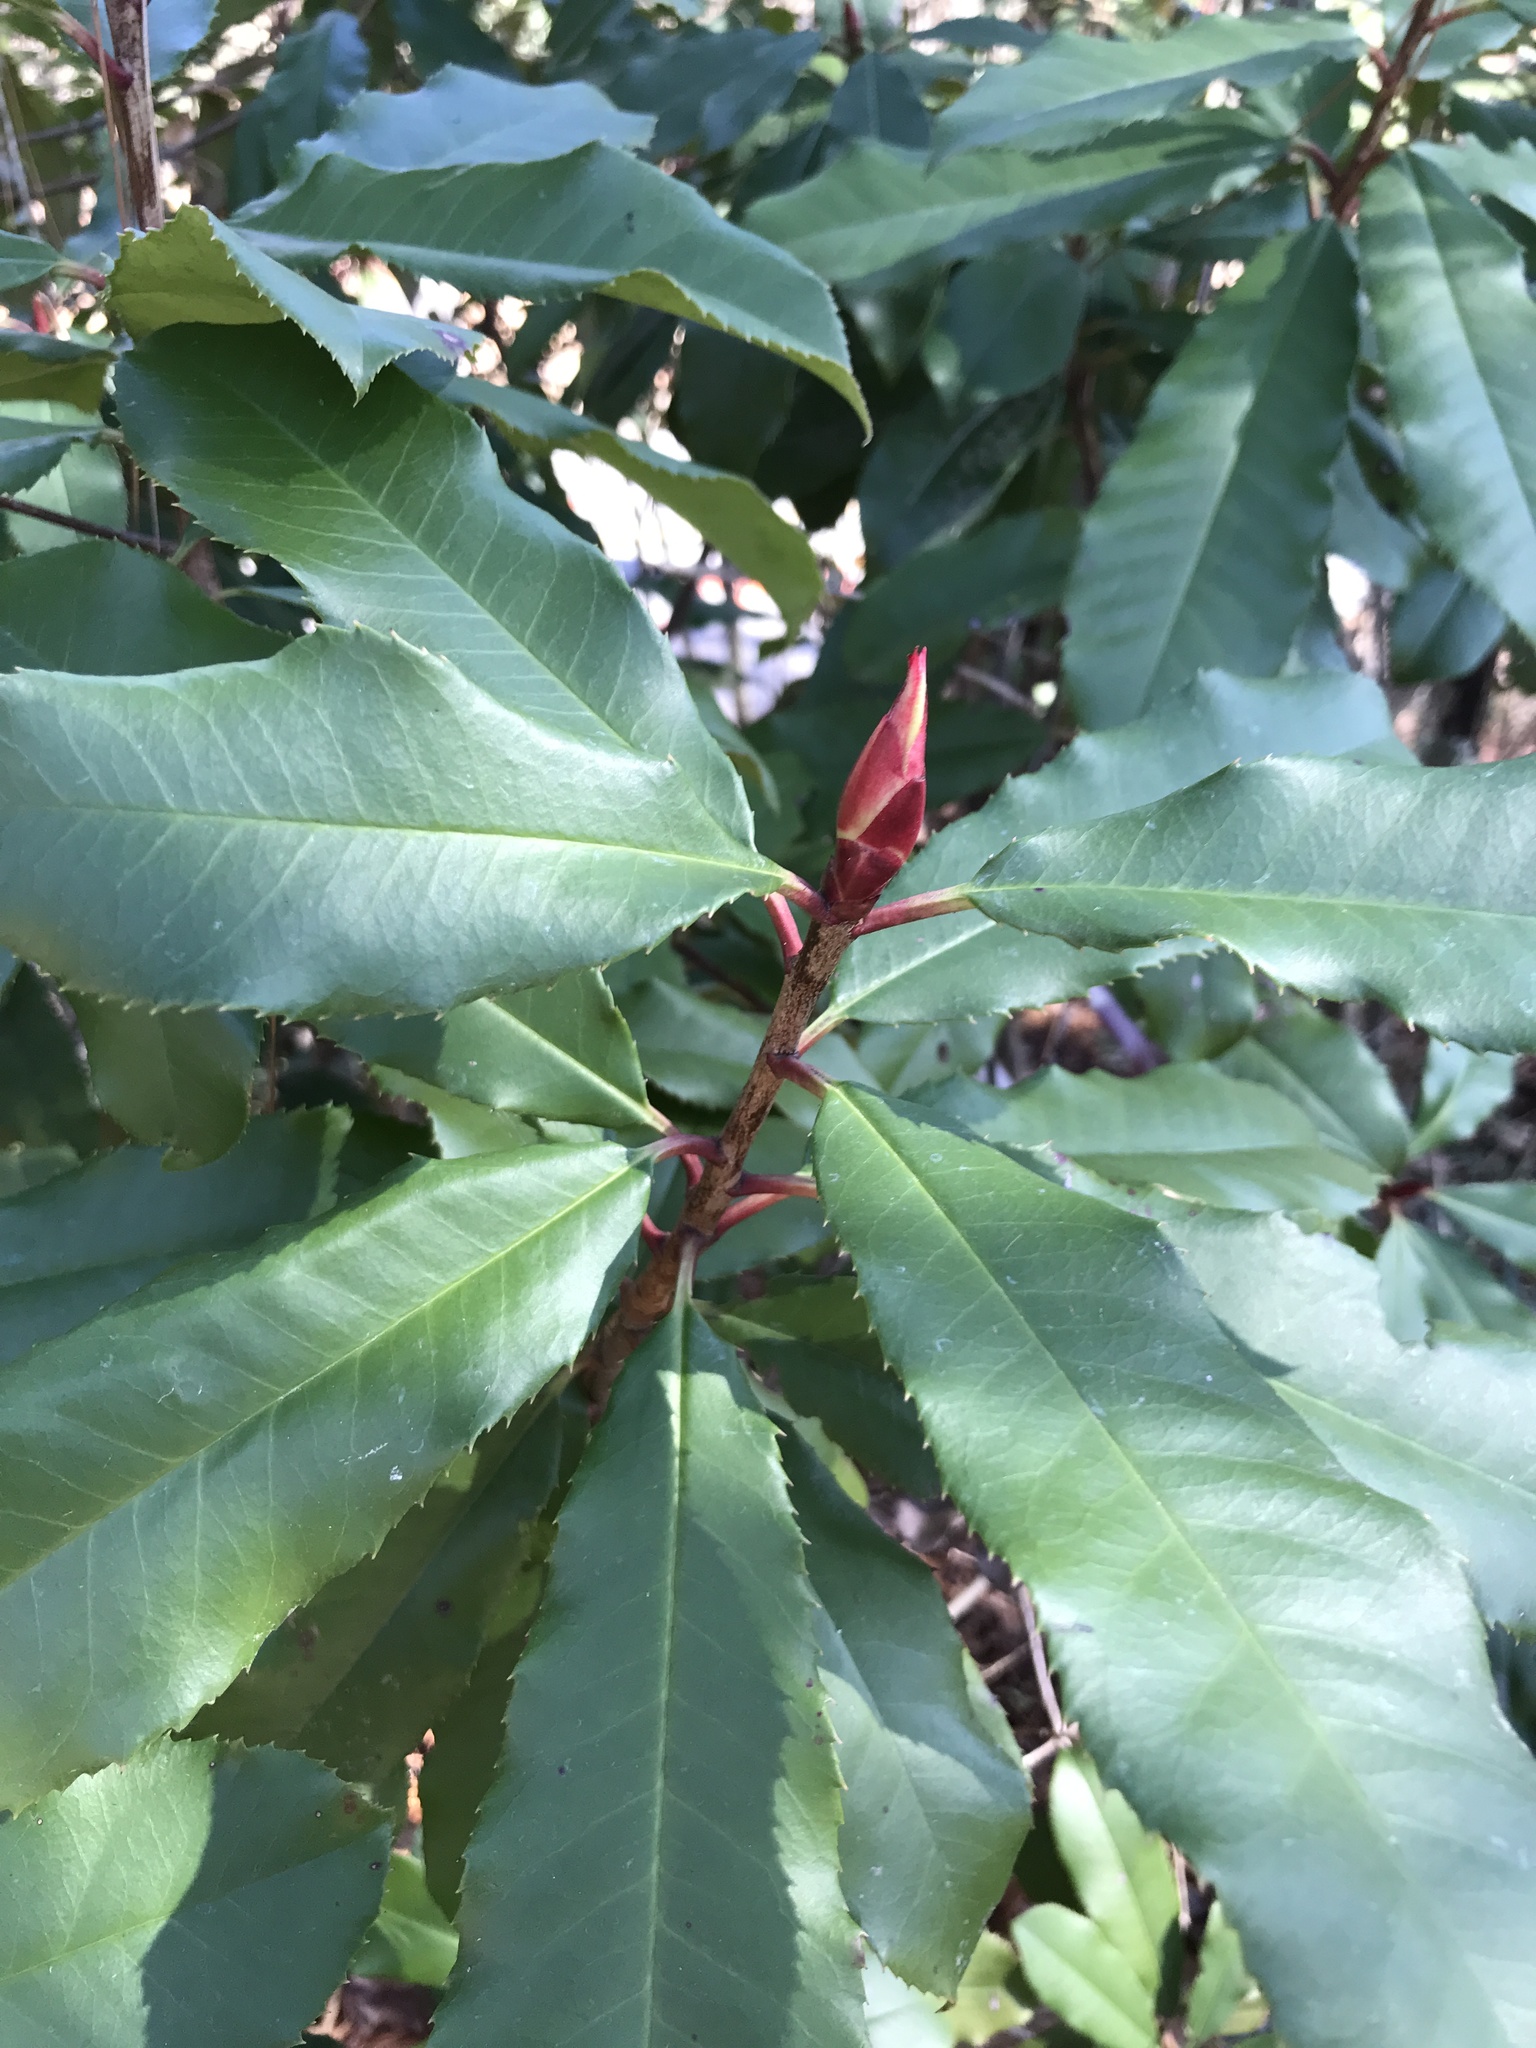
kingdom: Plantae
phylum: Tracheophyta
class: Magnoliopsida
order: Rosales
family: Rosaceae
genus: Photinia
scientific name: Photinia serratifolia
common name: Taiwanese photinia
